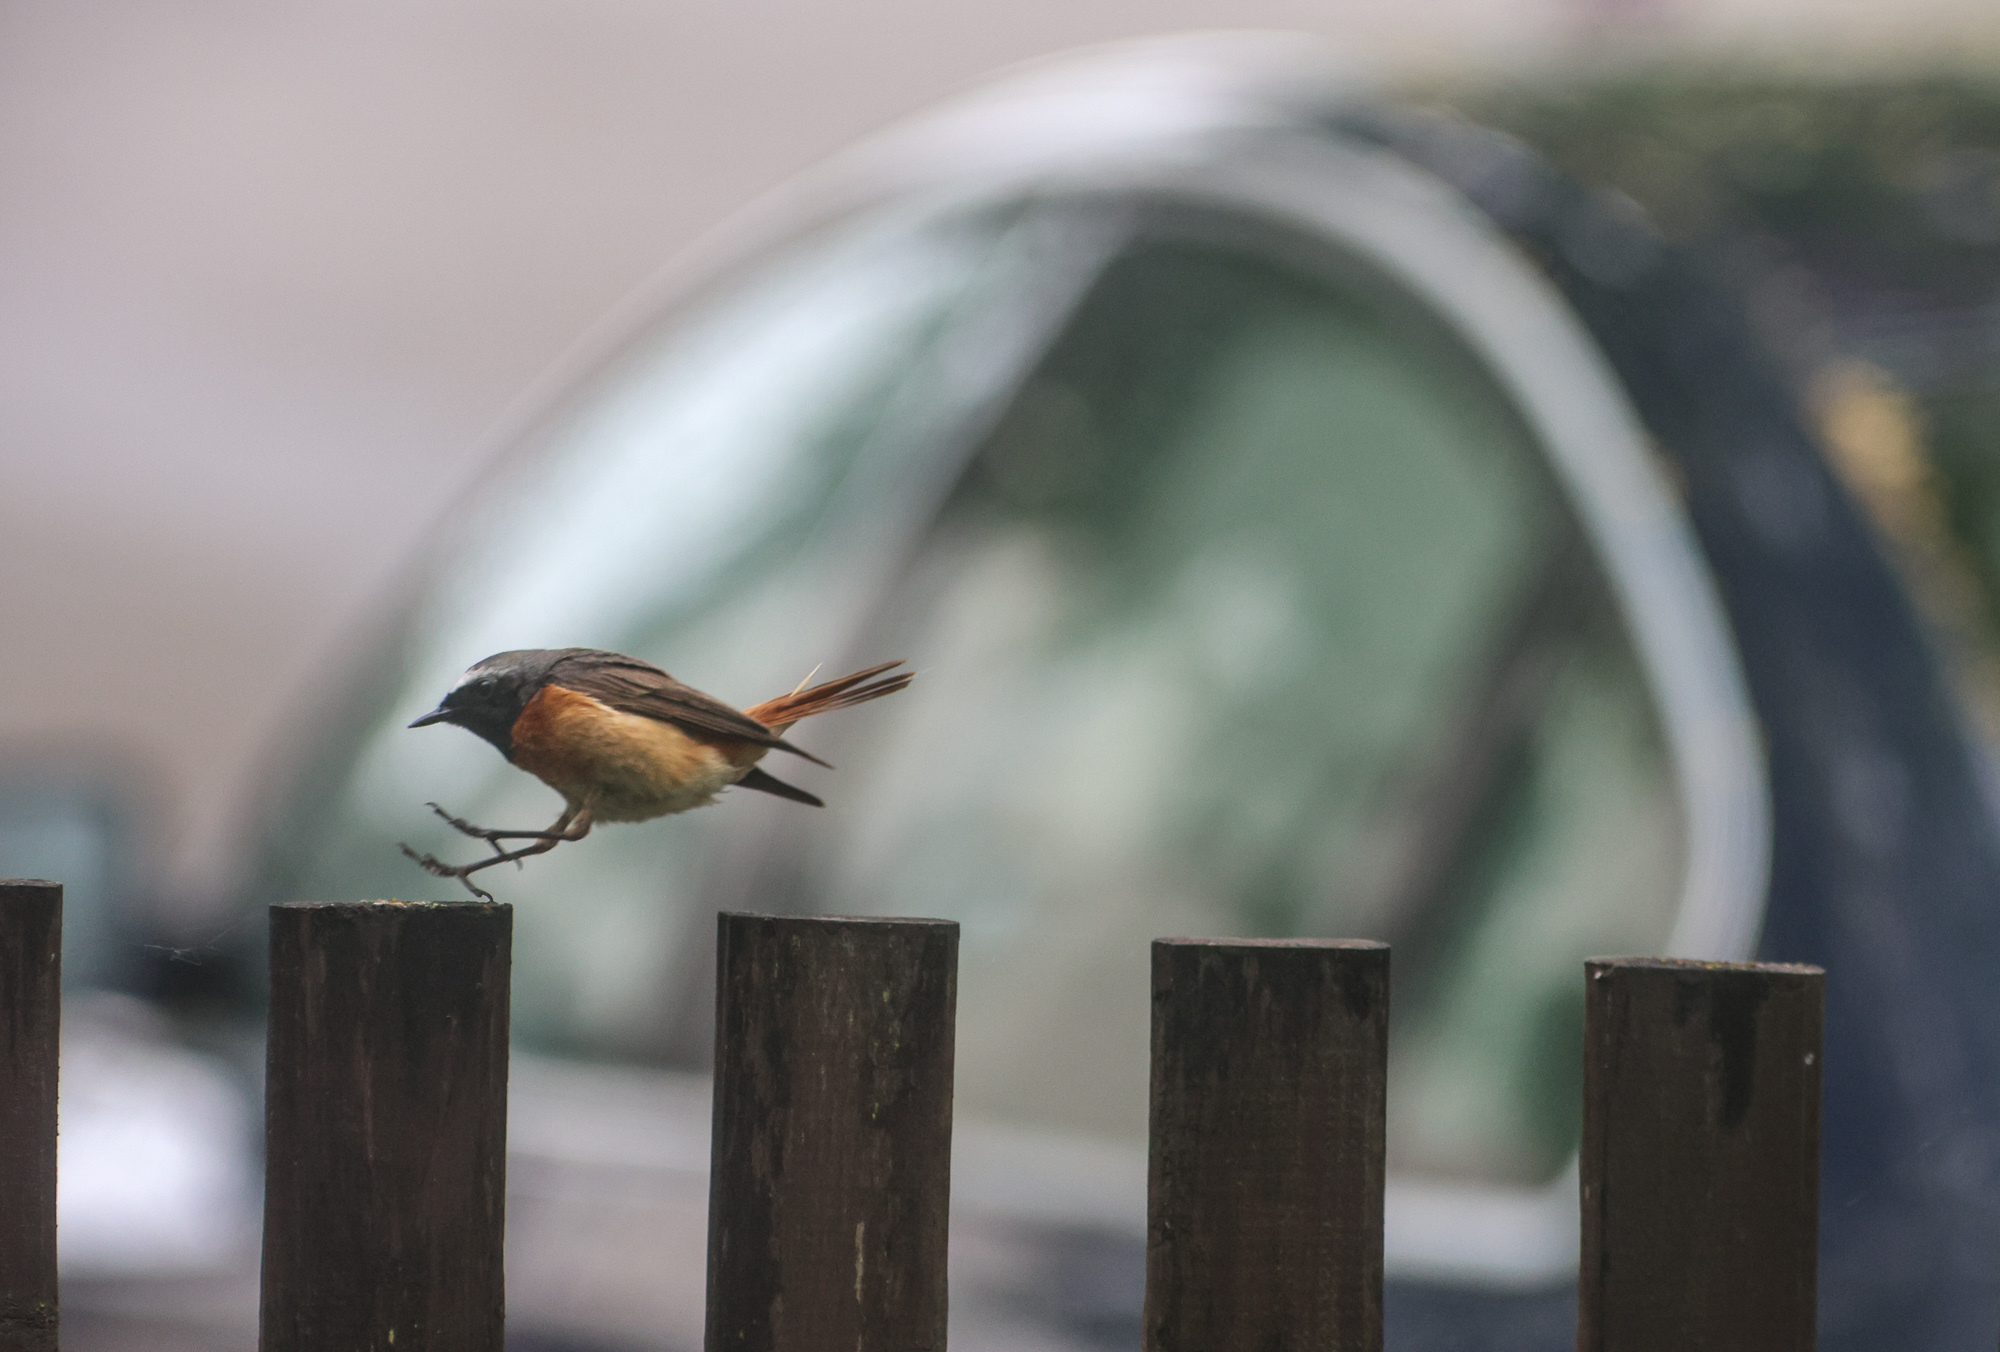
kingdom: Animalia
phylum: Chordata
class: Aves
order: Passeriformes
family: Muscicapidae
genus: Phoenicurus
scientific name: Phoenicurus phoenicurus
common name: Common redstart
